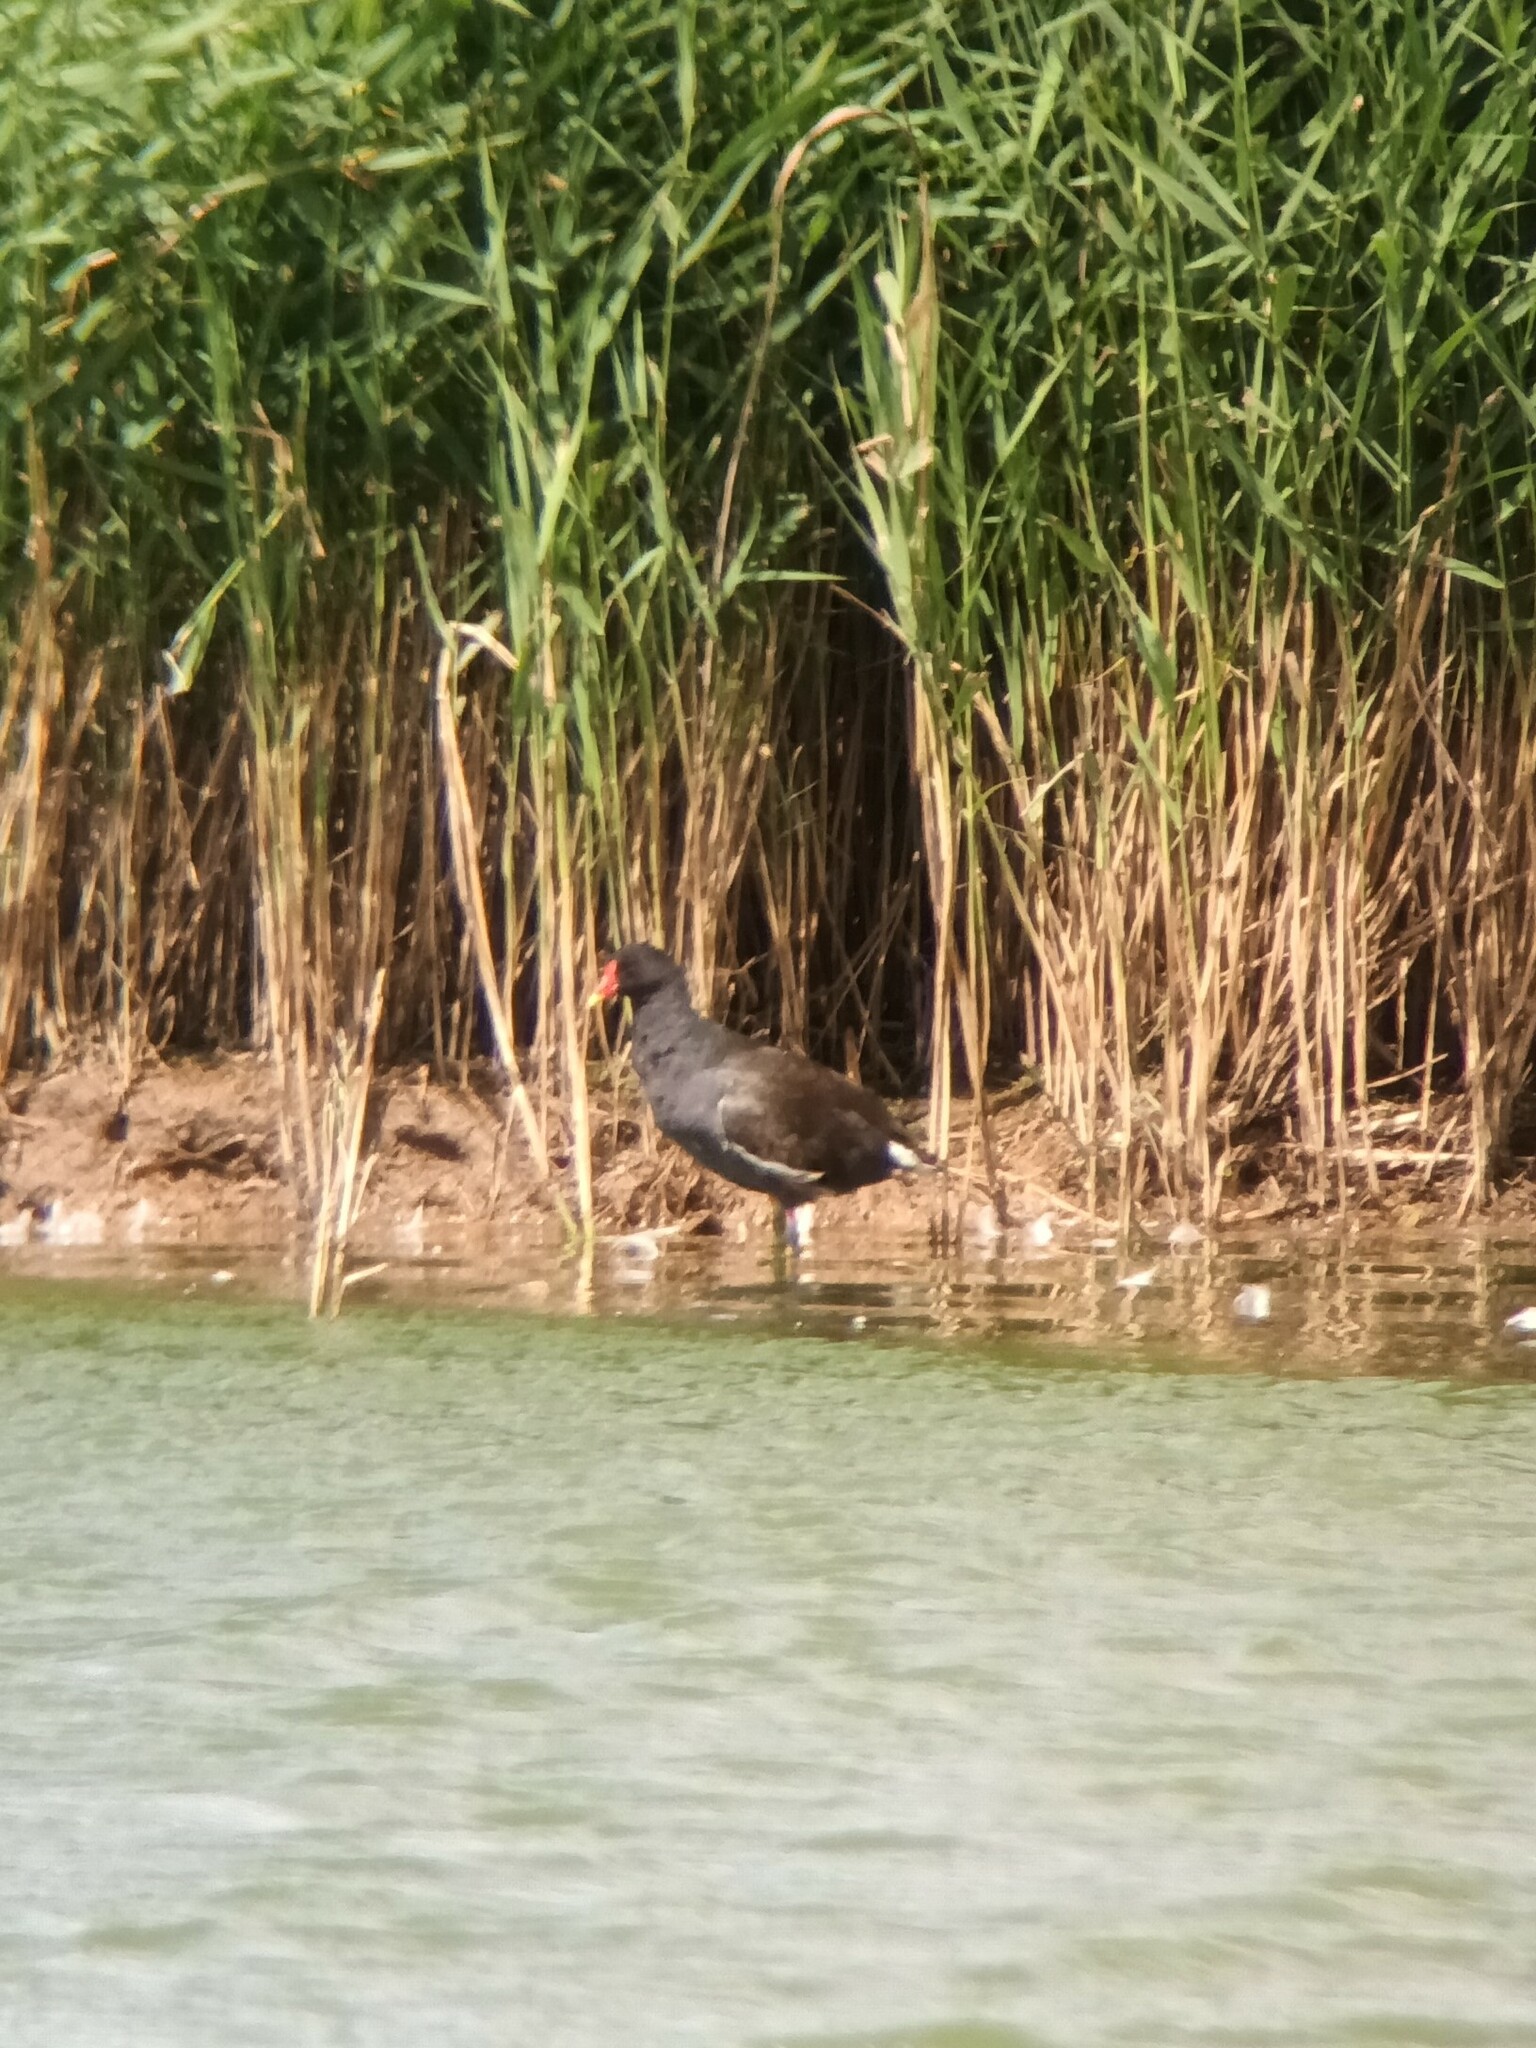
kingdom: Animalia
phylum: Chordata
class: Aves
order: Gruiformes
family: Rallidae
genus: Gallinula
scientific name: Gallinula chloropus
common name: Common moorhen
